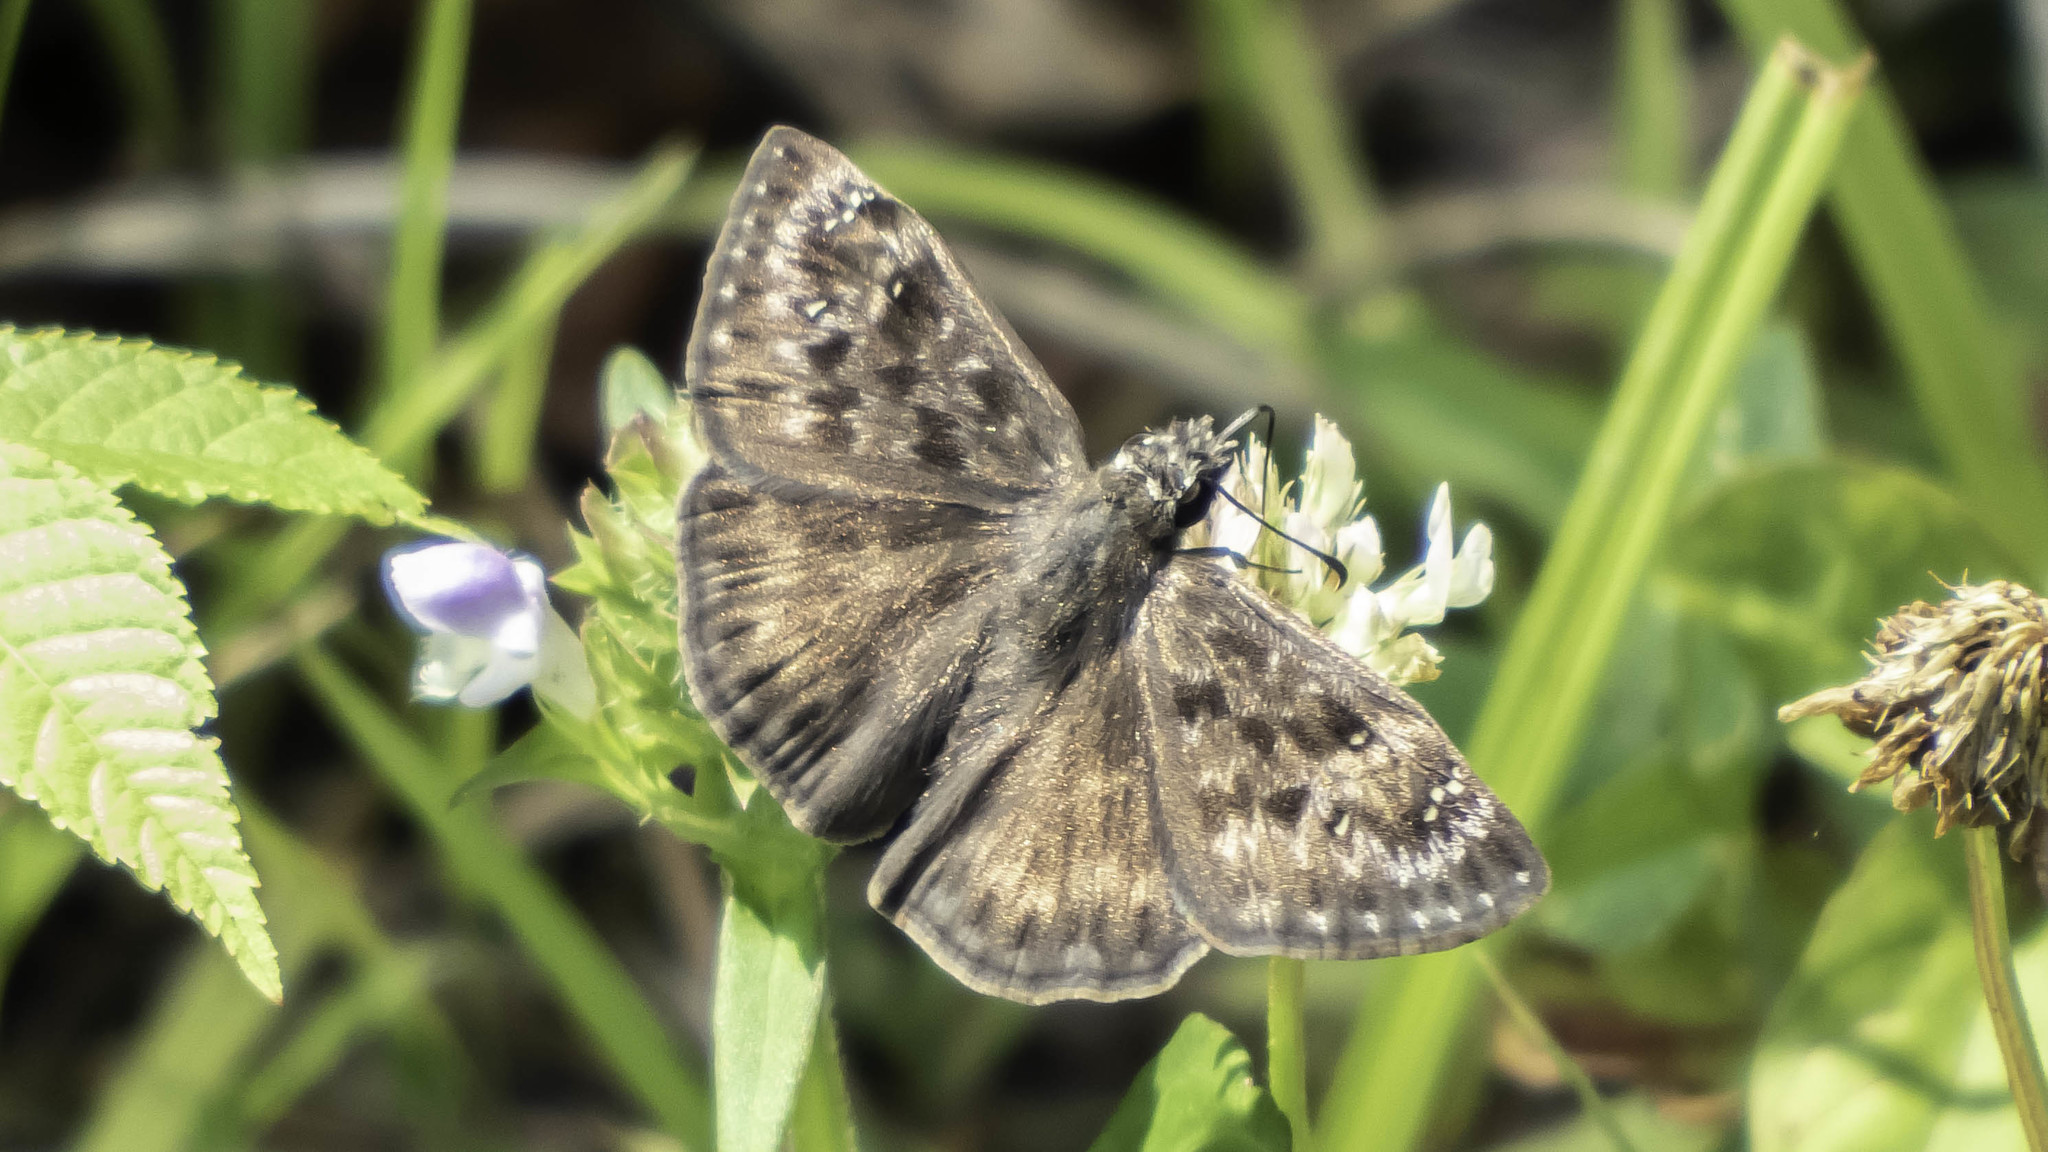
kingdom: Animalia
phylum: Arthropoda
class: Insecta
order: Lepidoptera
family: Hesperiidae
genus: Erynnis
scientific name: Erynnis horatius
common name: Horace's duskywing
